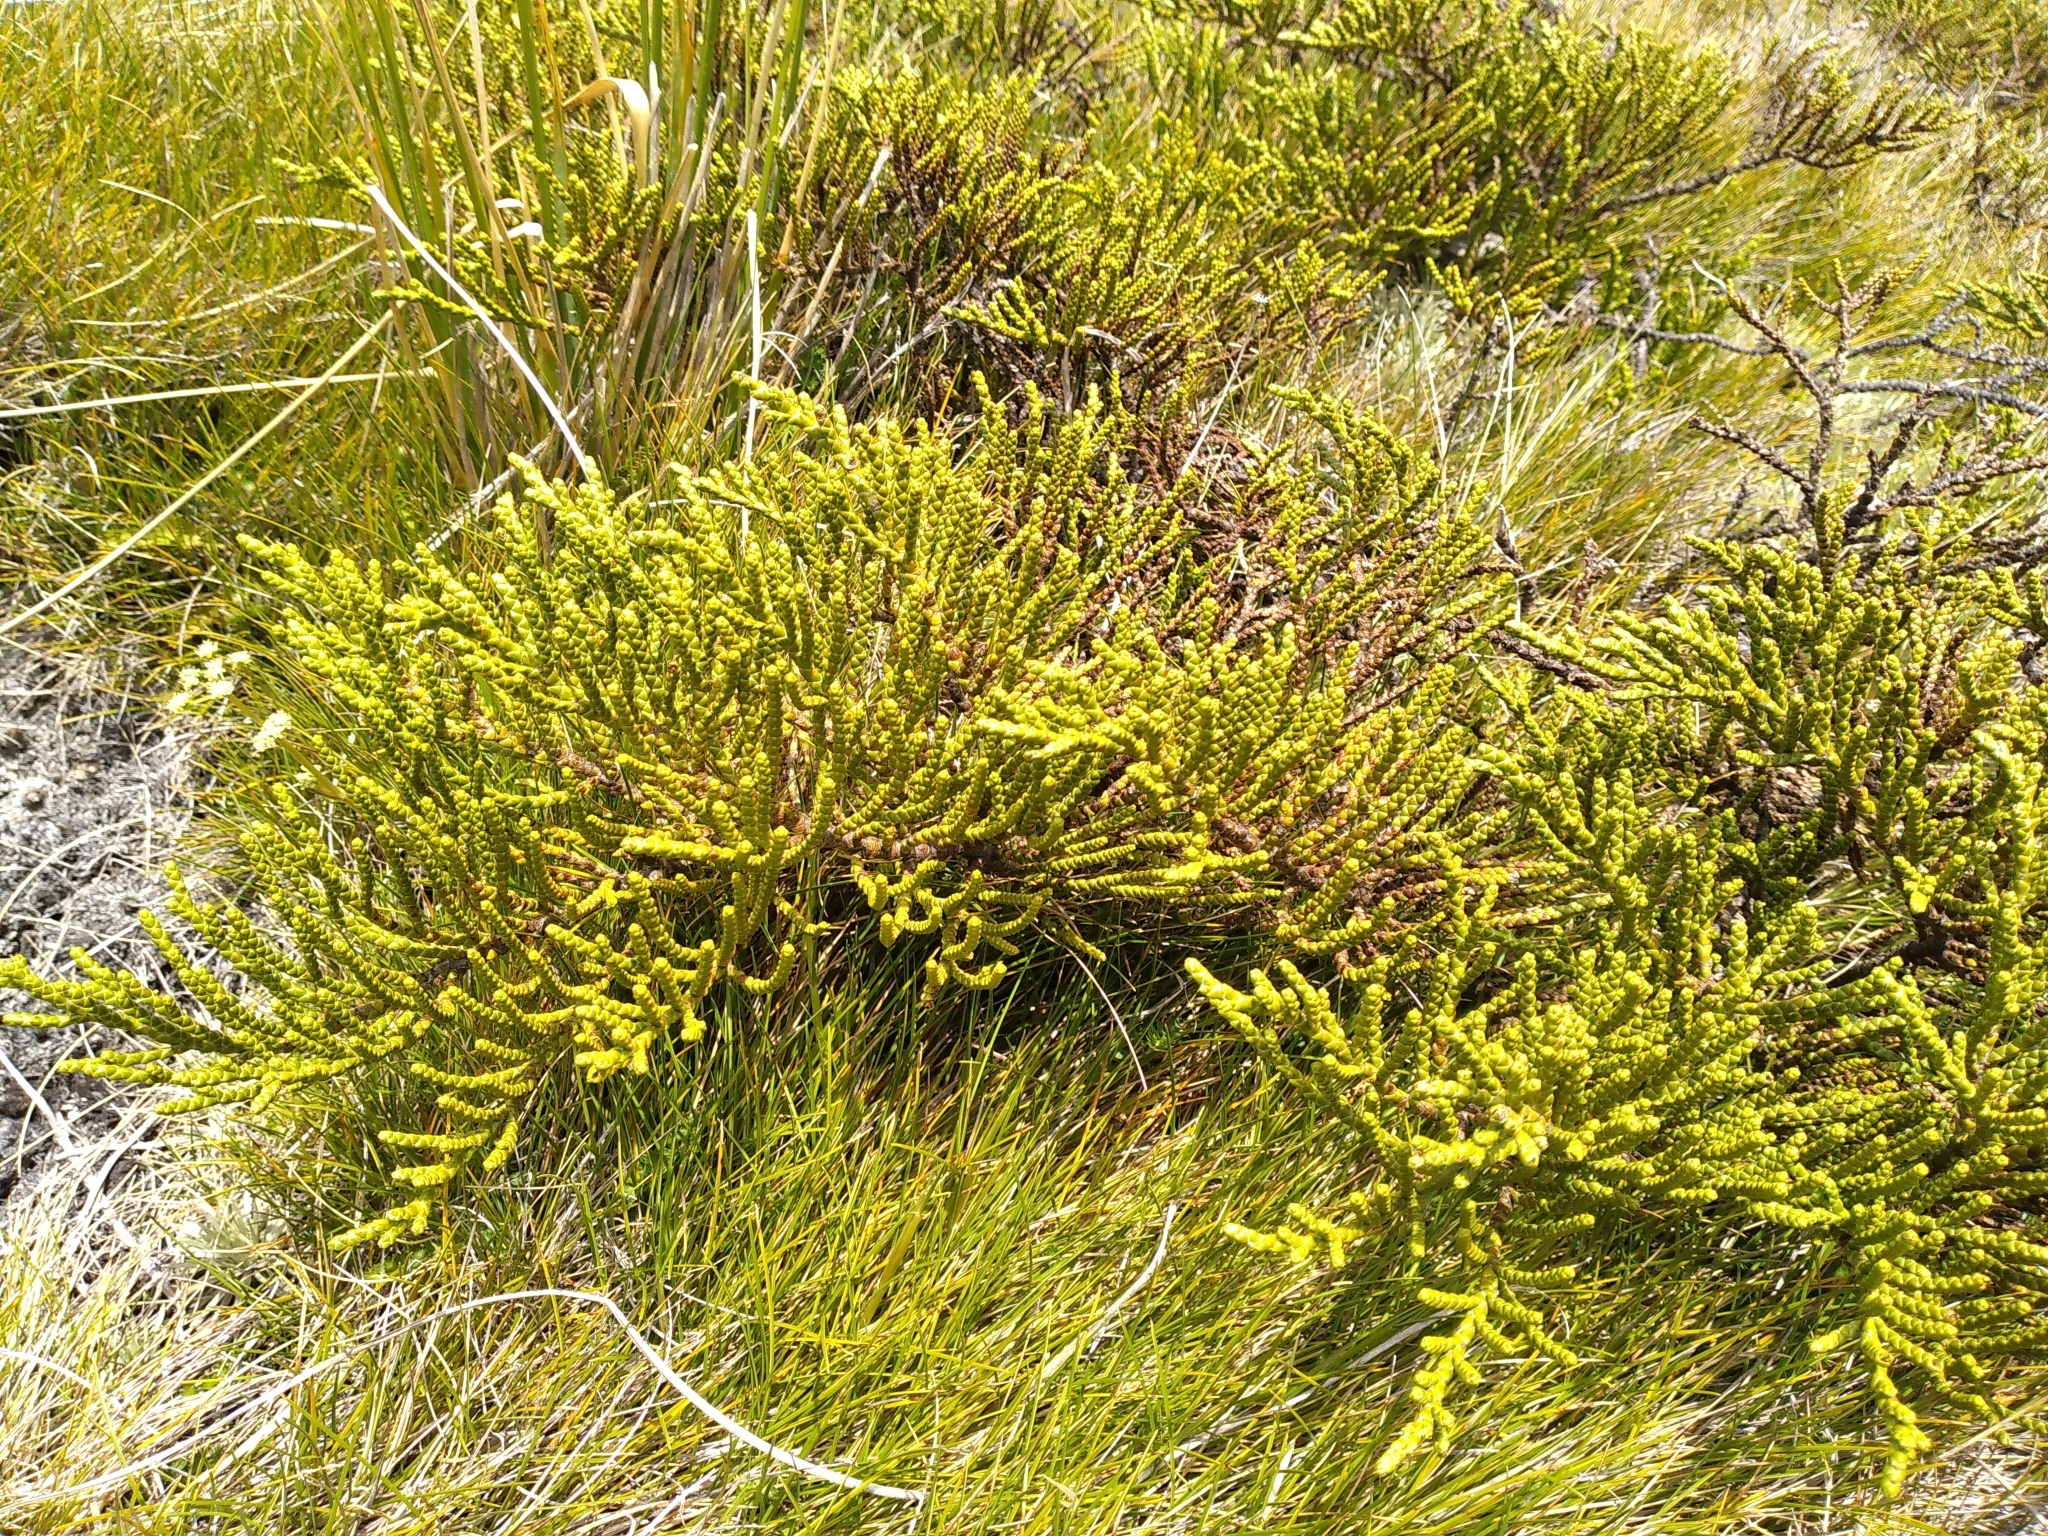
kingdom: Plantae
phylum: Tracheophyta
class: Magnoliopsida
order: Lamiales
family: Plantaginaceae
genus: Veronica
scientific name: Veronica hectorii
